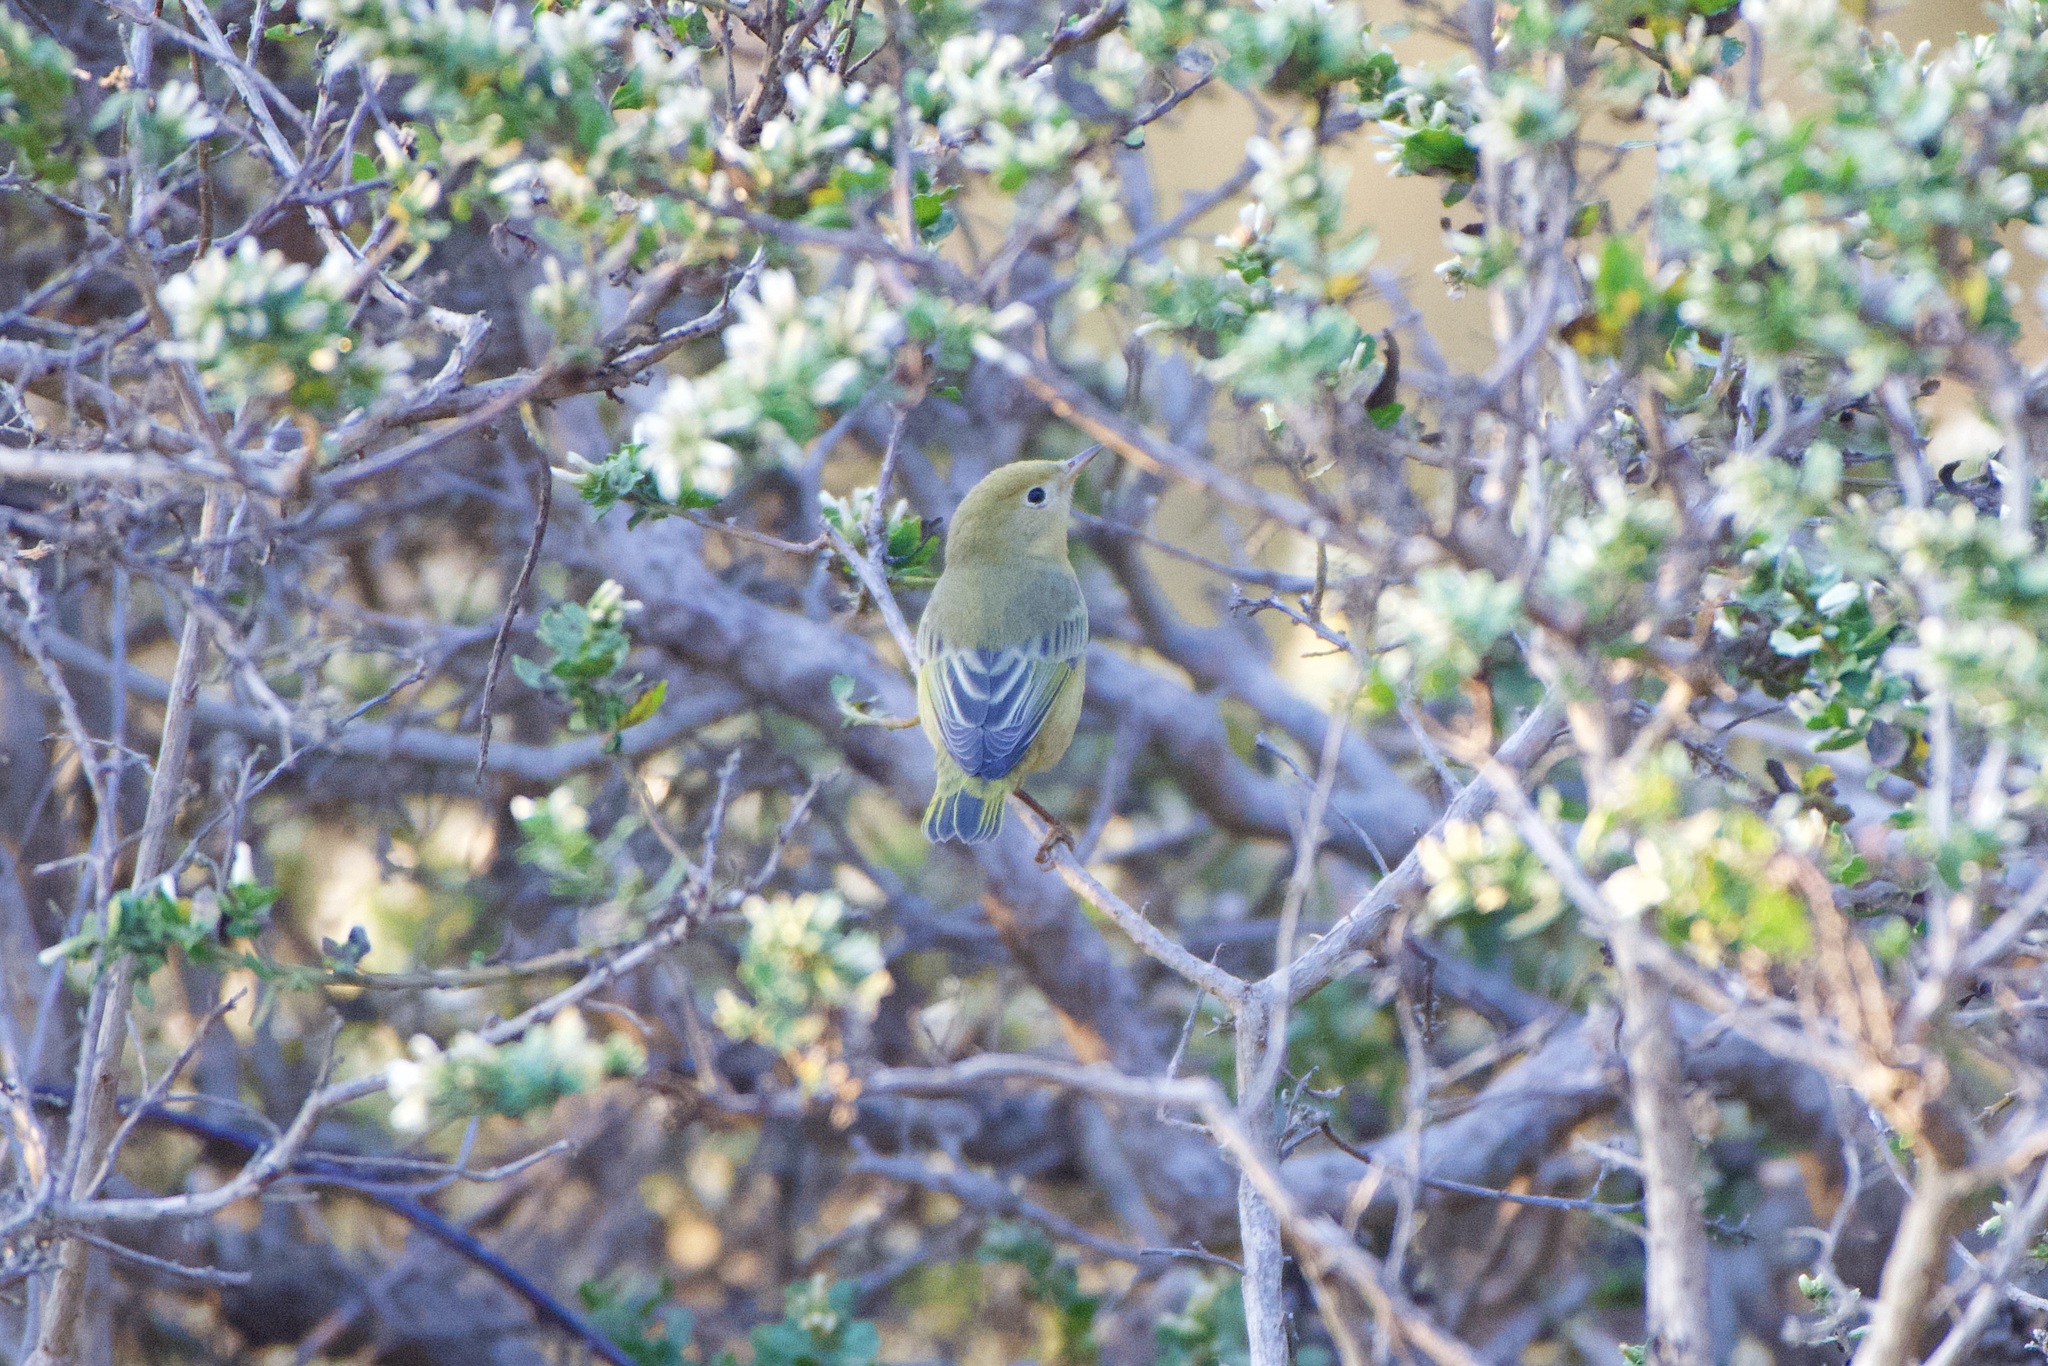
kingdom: Animalia
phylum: Chordata
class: Aves
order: Passeriformes
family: Parulidae
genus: Setophaga
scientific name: Setophaga petechia
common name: Yellow warbler
